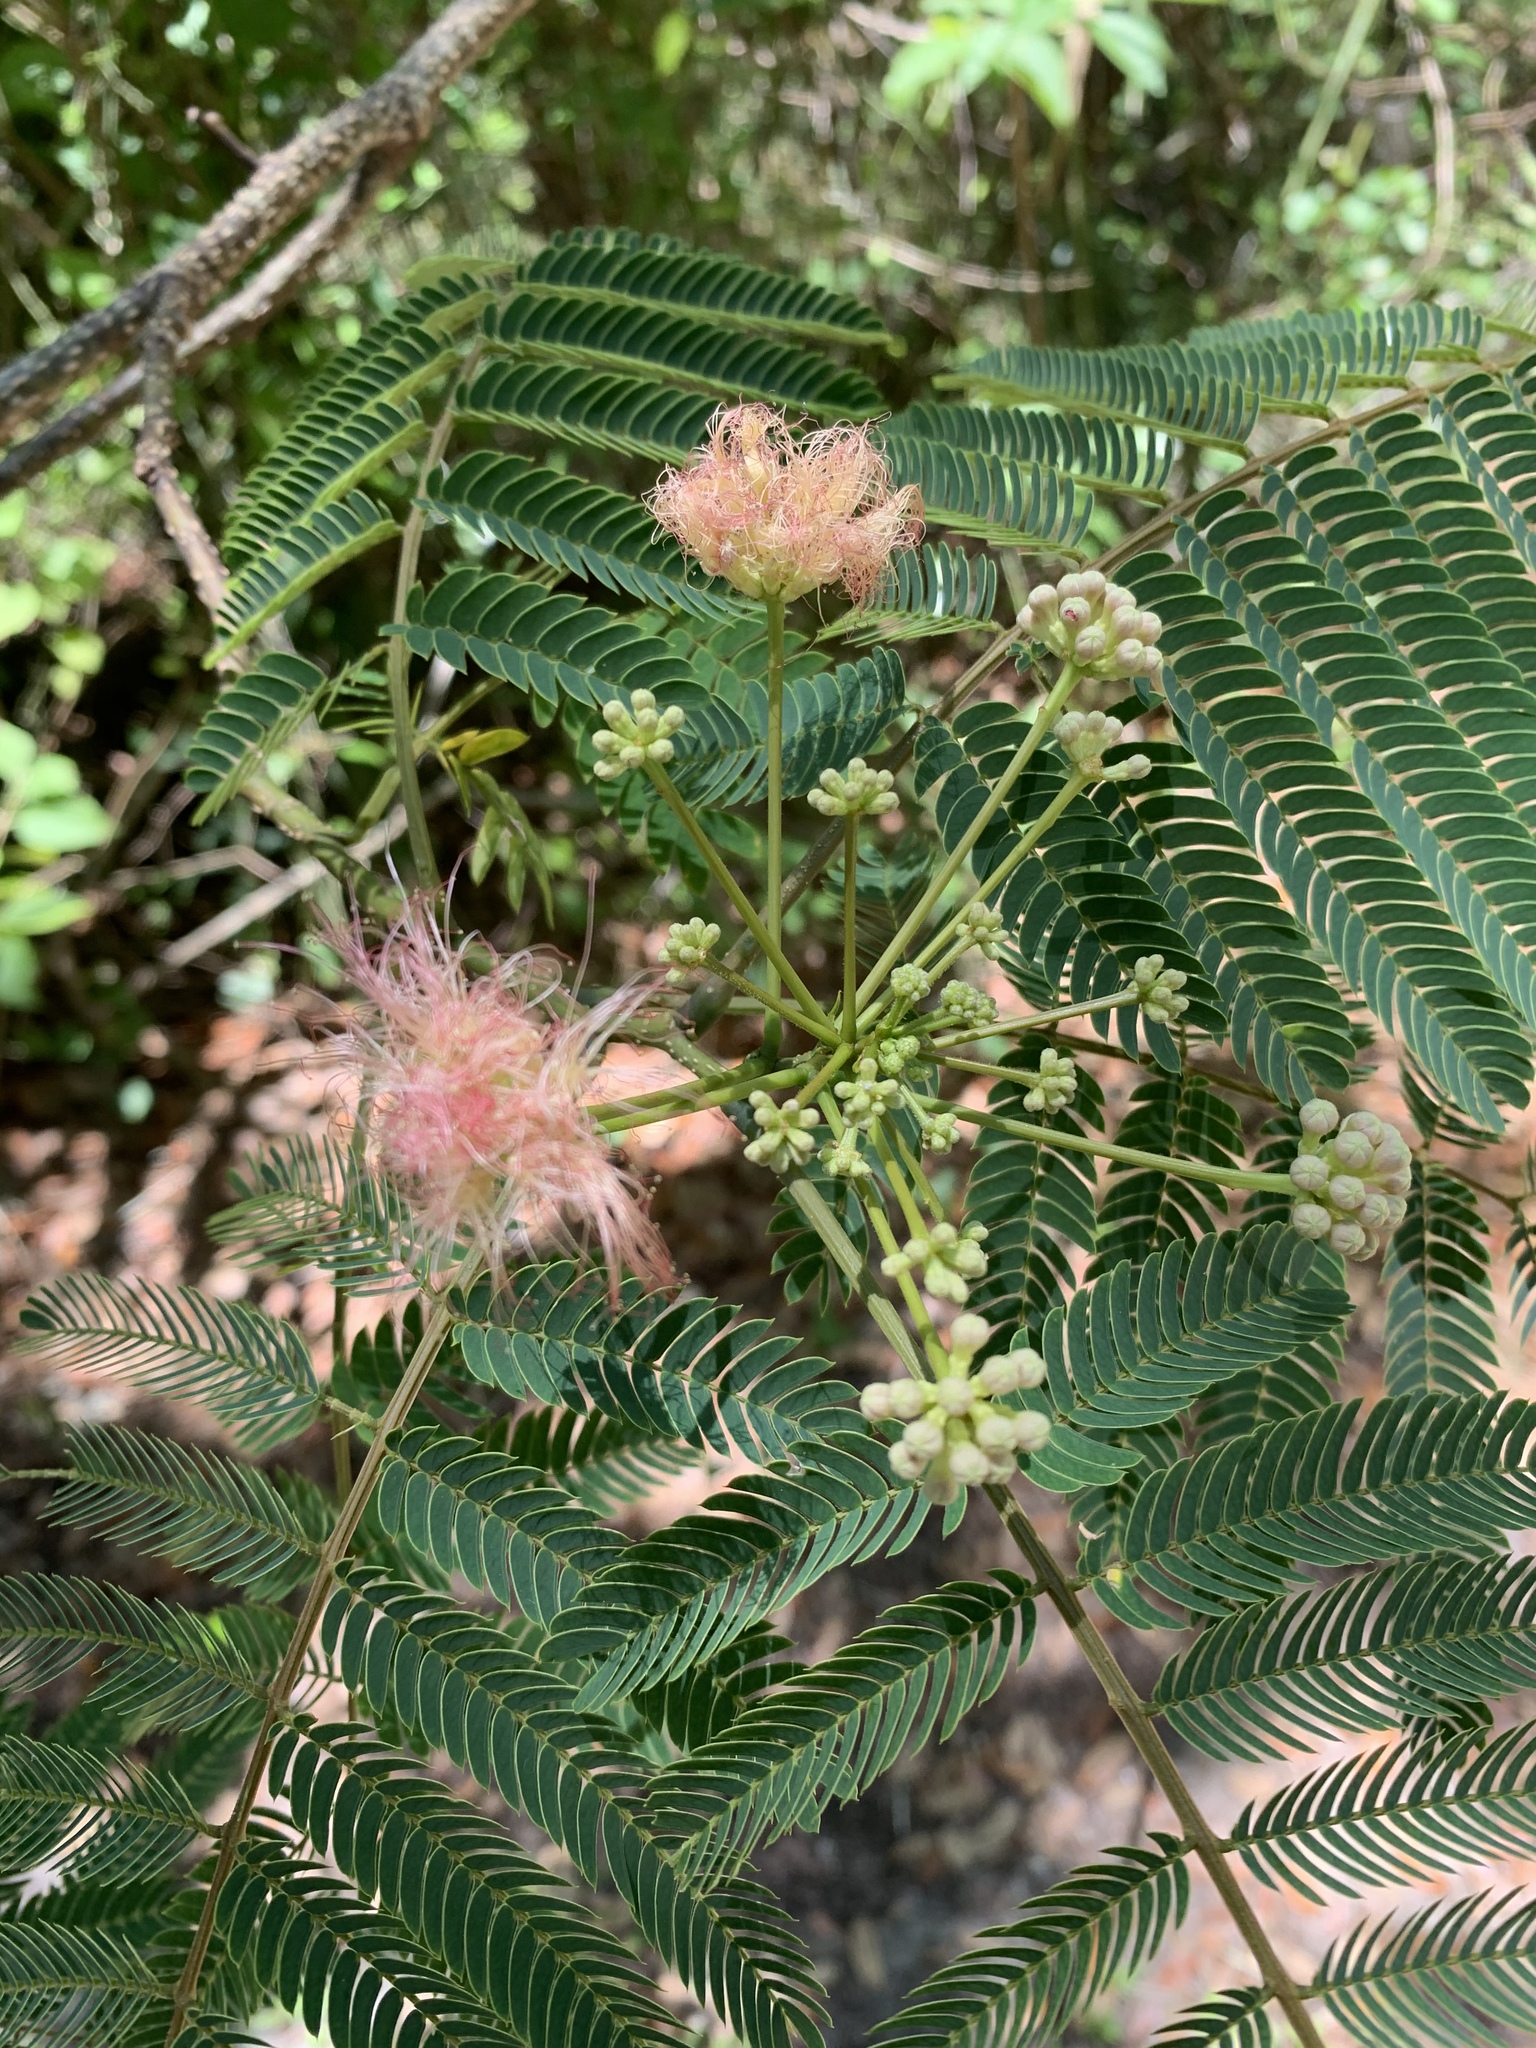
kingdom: Plantae
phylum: Tracheophyta
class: Magnoliopsida
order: Fabales
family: Fabaceae
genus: Albizia
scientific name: Albizia julibrissin
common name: Silktree
